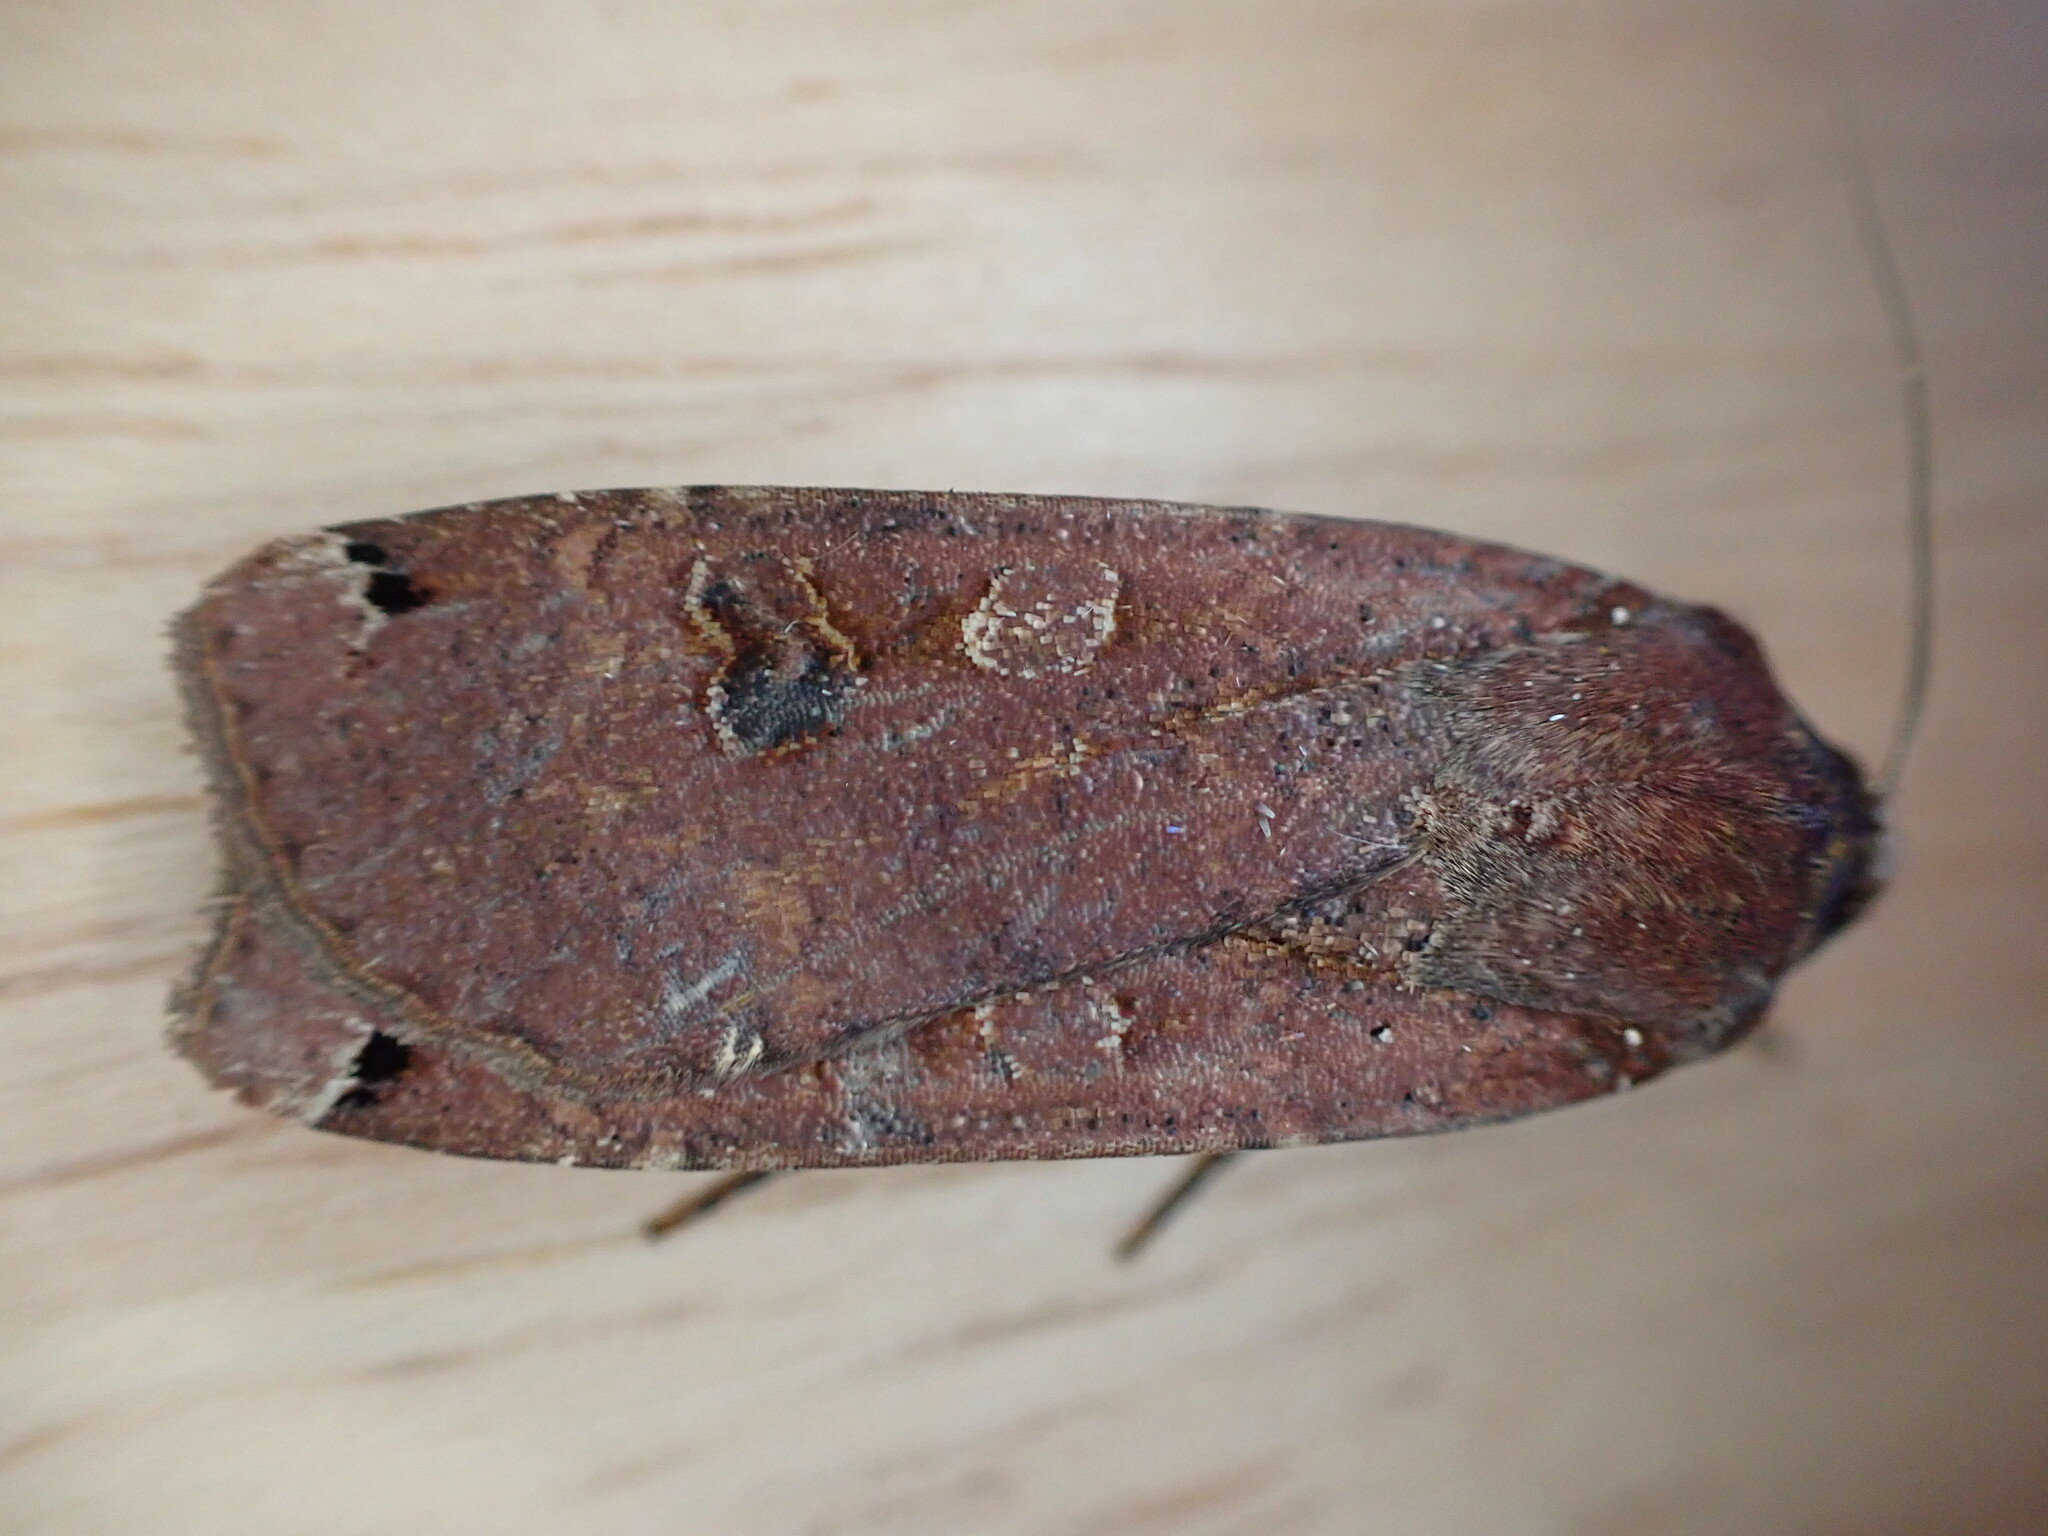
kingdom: Animalia
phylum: Arthropoda
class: Insecta
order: Lepidoptera
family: Noctuidae
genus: Noctua
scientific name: Noctua pronuba
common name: Large yellow underwing
